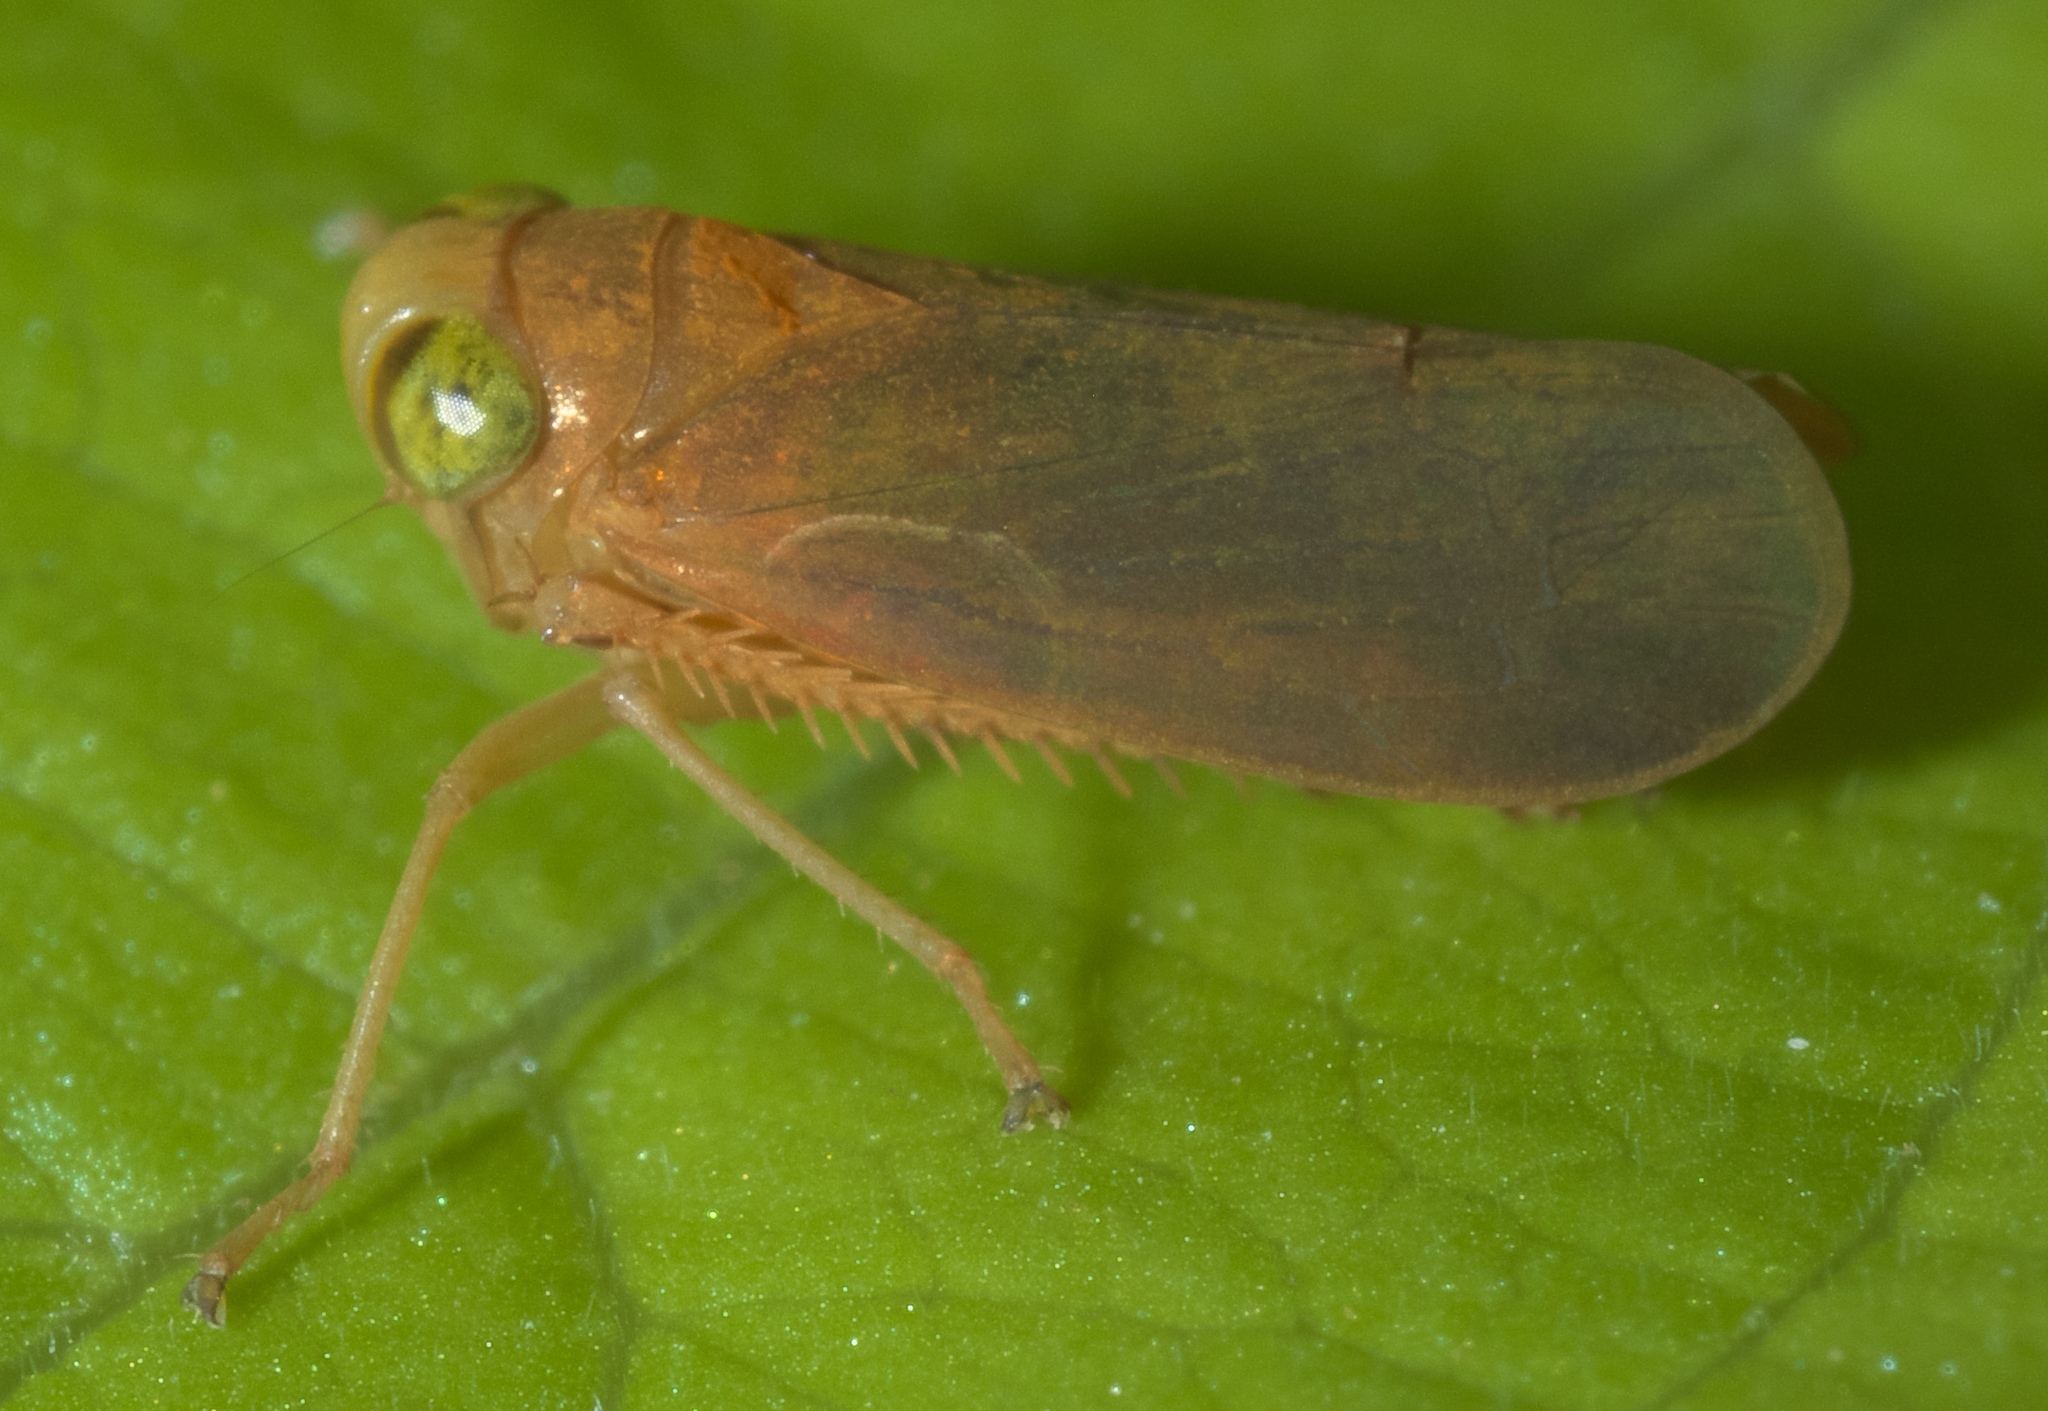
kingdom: Animalia
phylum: Arthropoda
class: Insecta
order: Hemiptera
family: Cicadellidae
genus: Jikradia
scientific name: Jikradia olitoria
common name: Coppery leafhopper
